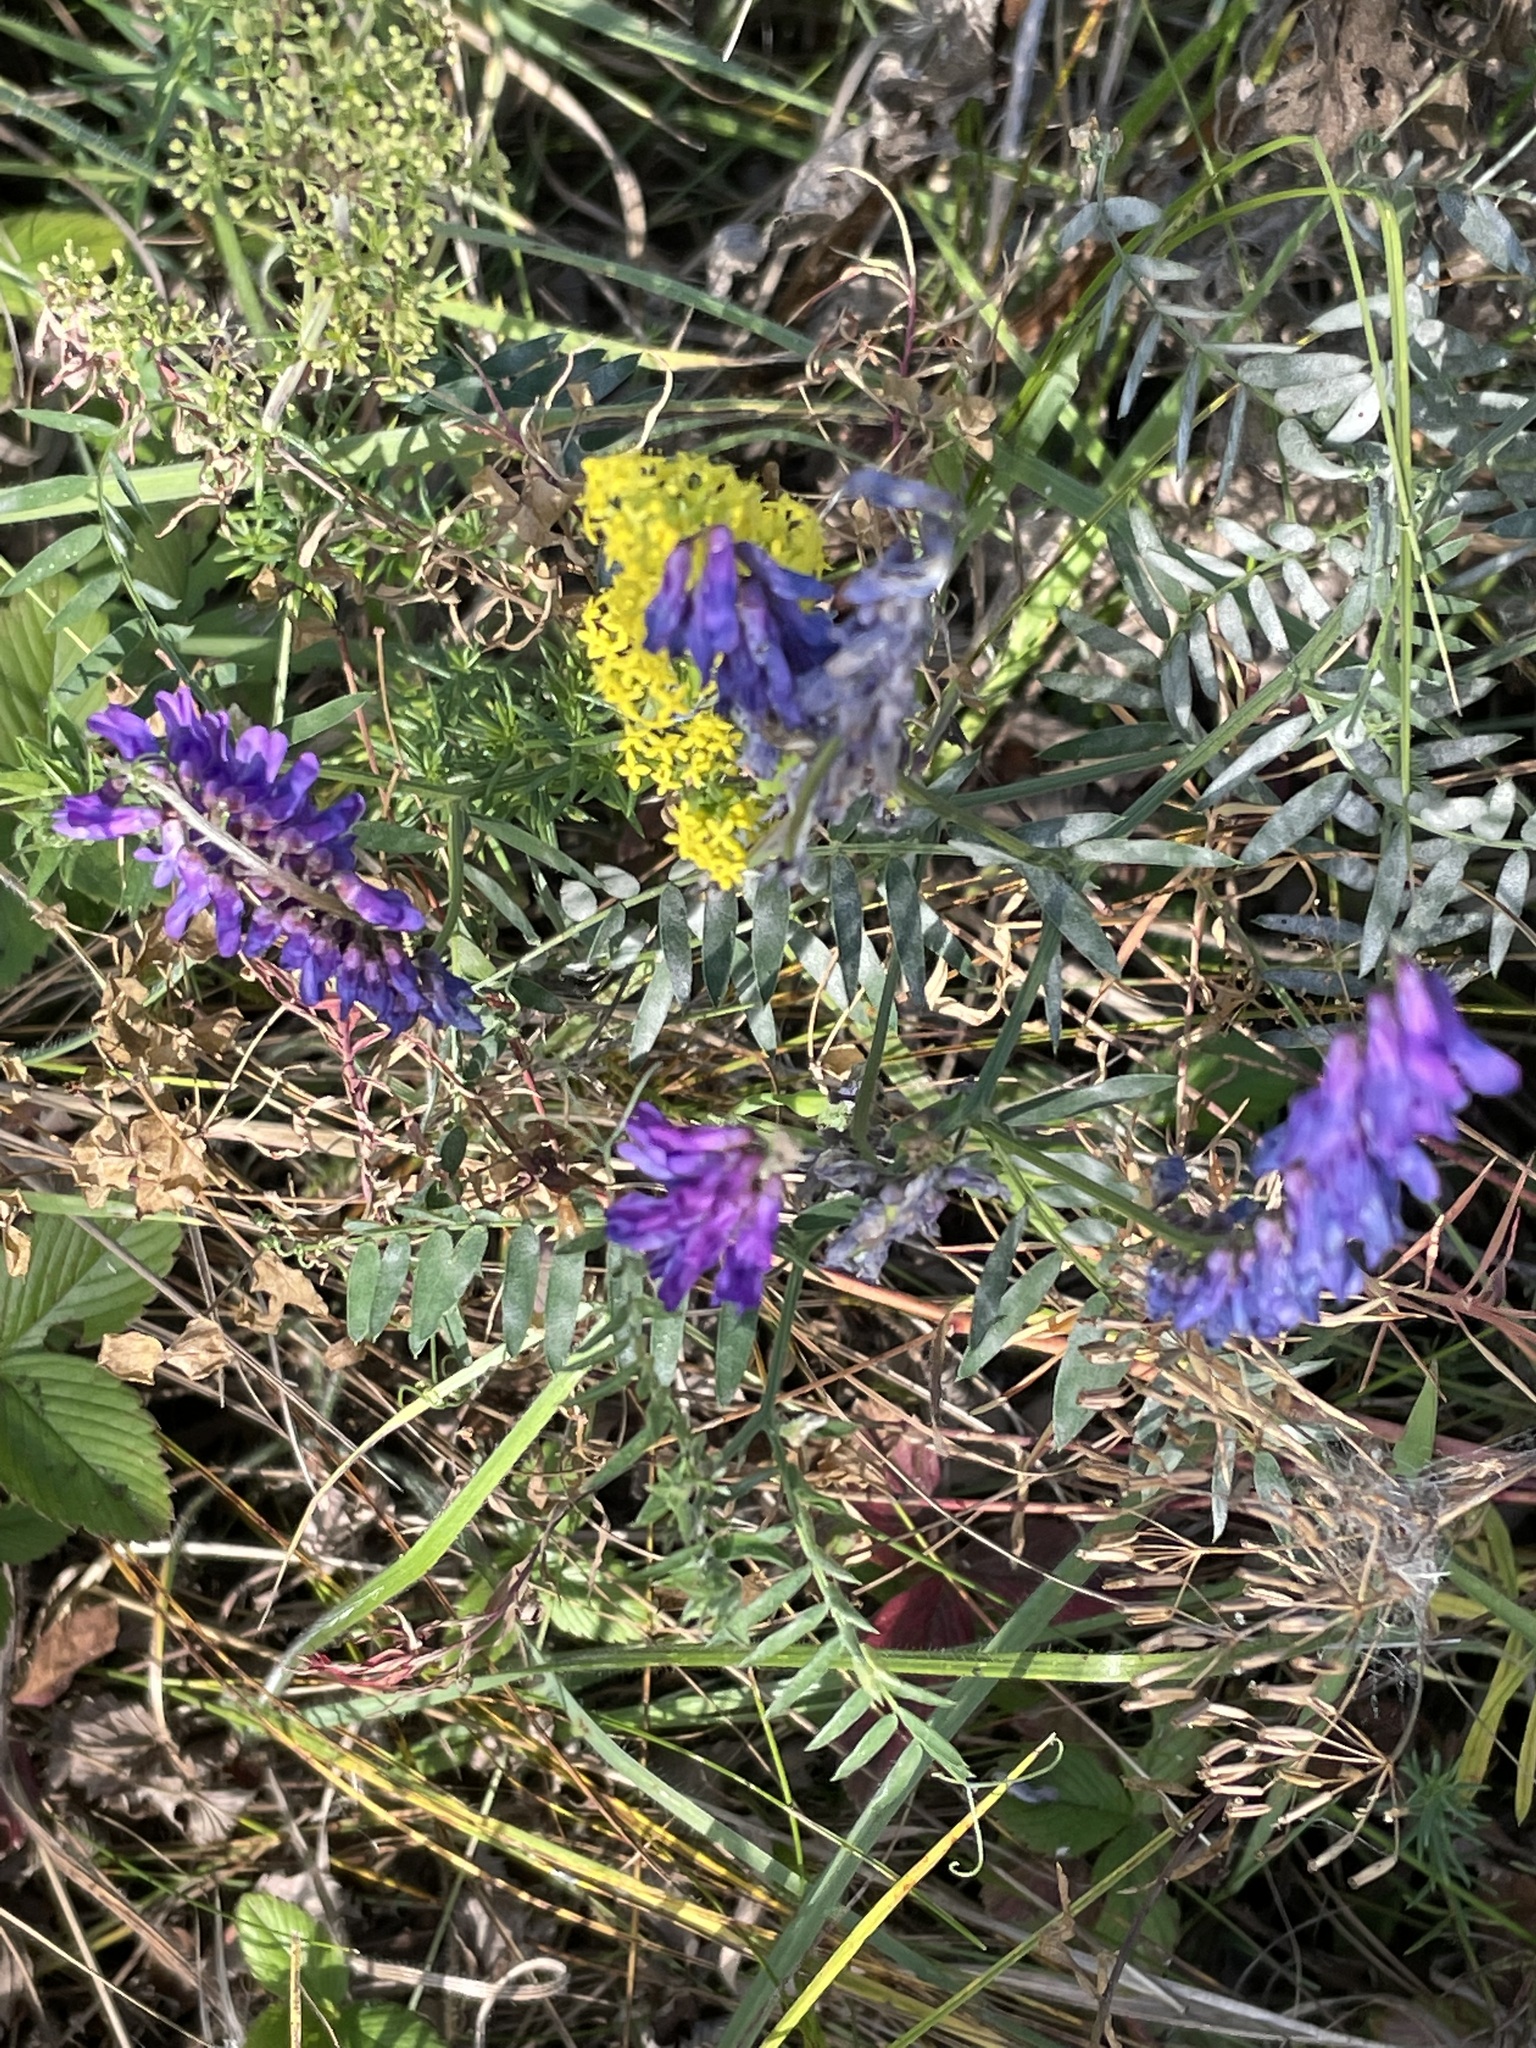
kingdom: Plantae
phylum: Tracheophyta
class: Magnoliopsida
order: Fabales
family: Fabaceae
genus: Vicia
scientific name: Vicia cracca
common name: Bird vetch
